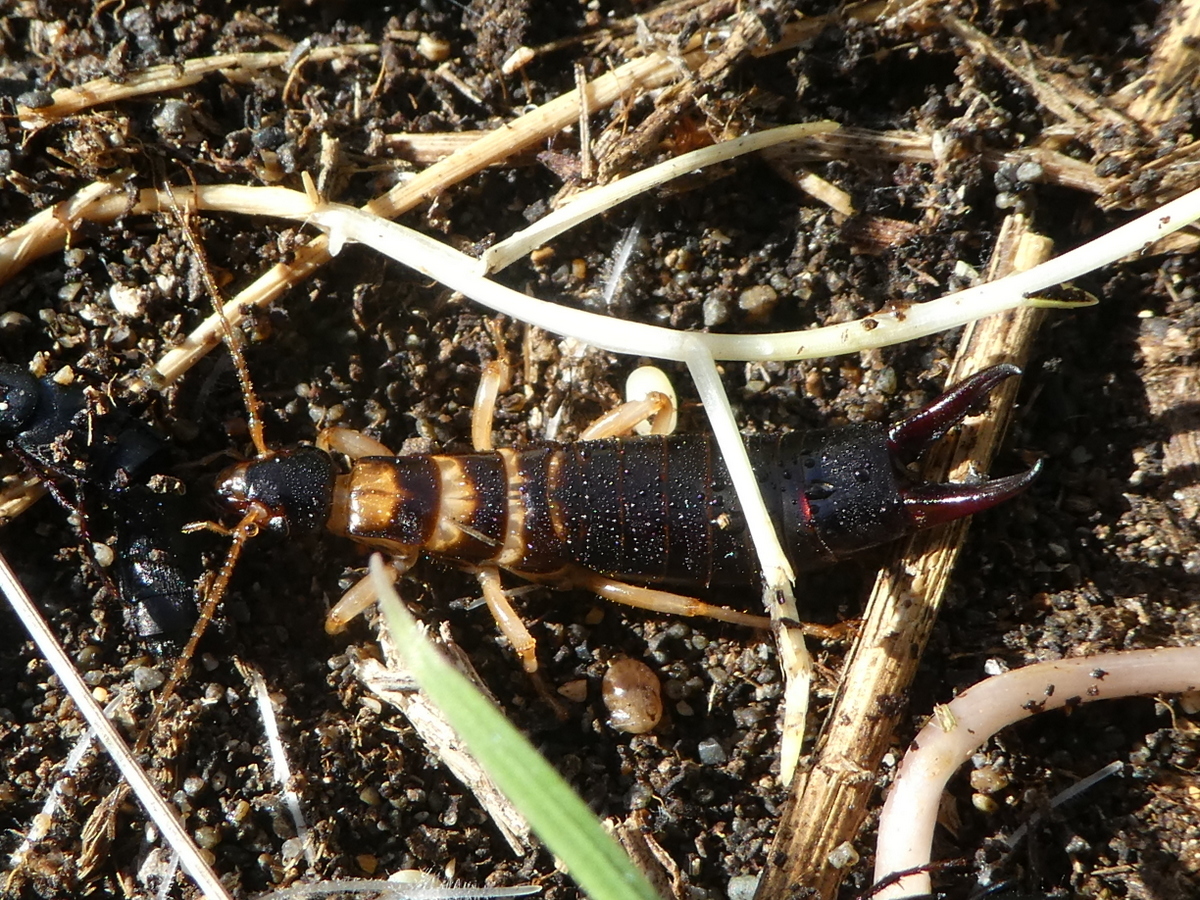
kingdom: Animalia
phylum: Arthropoda
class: Insecta
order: Dermaptera
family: Anisolabididae
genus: Anisolabis
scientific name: Anisolabis littorea
